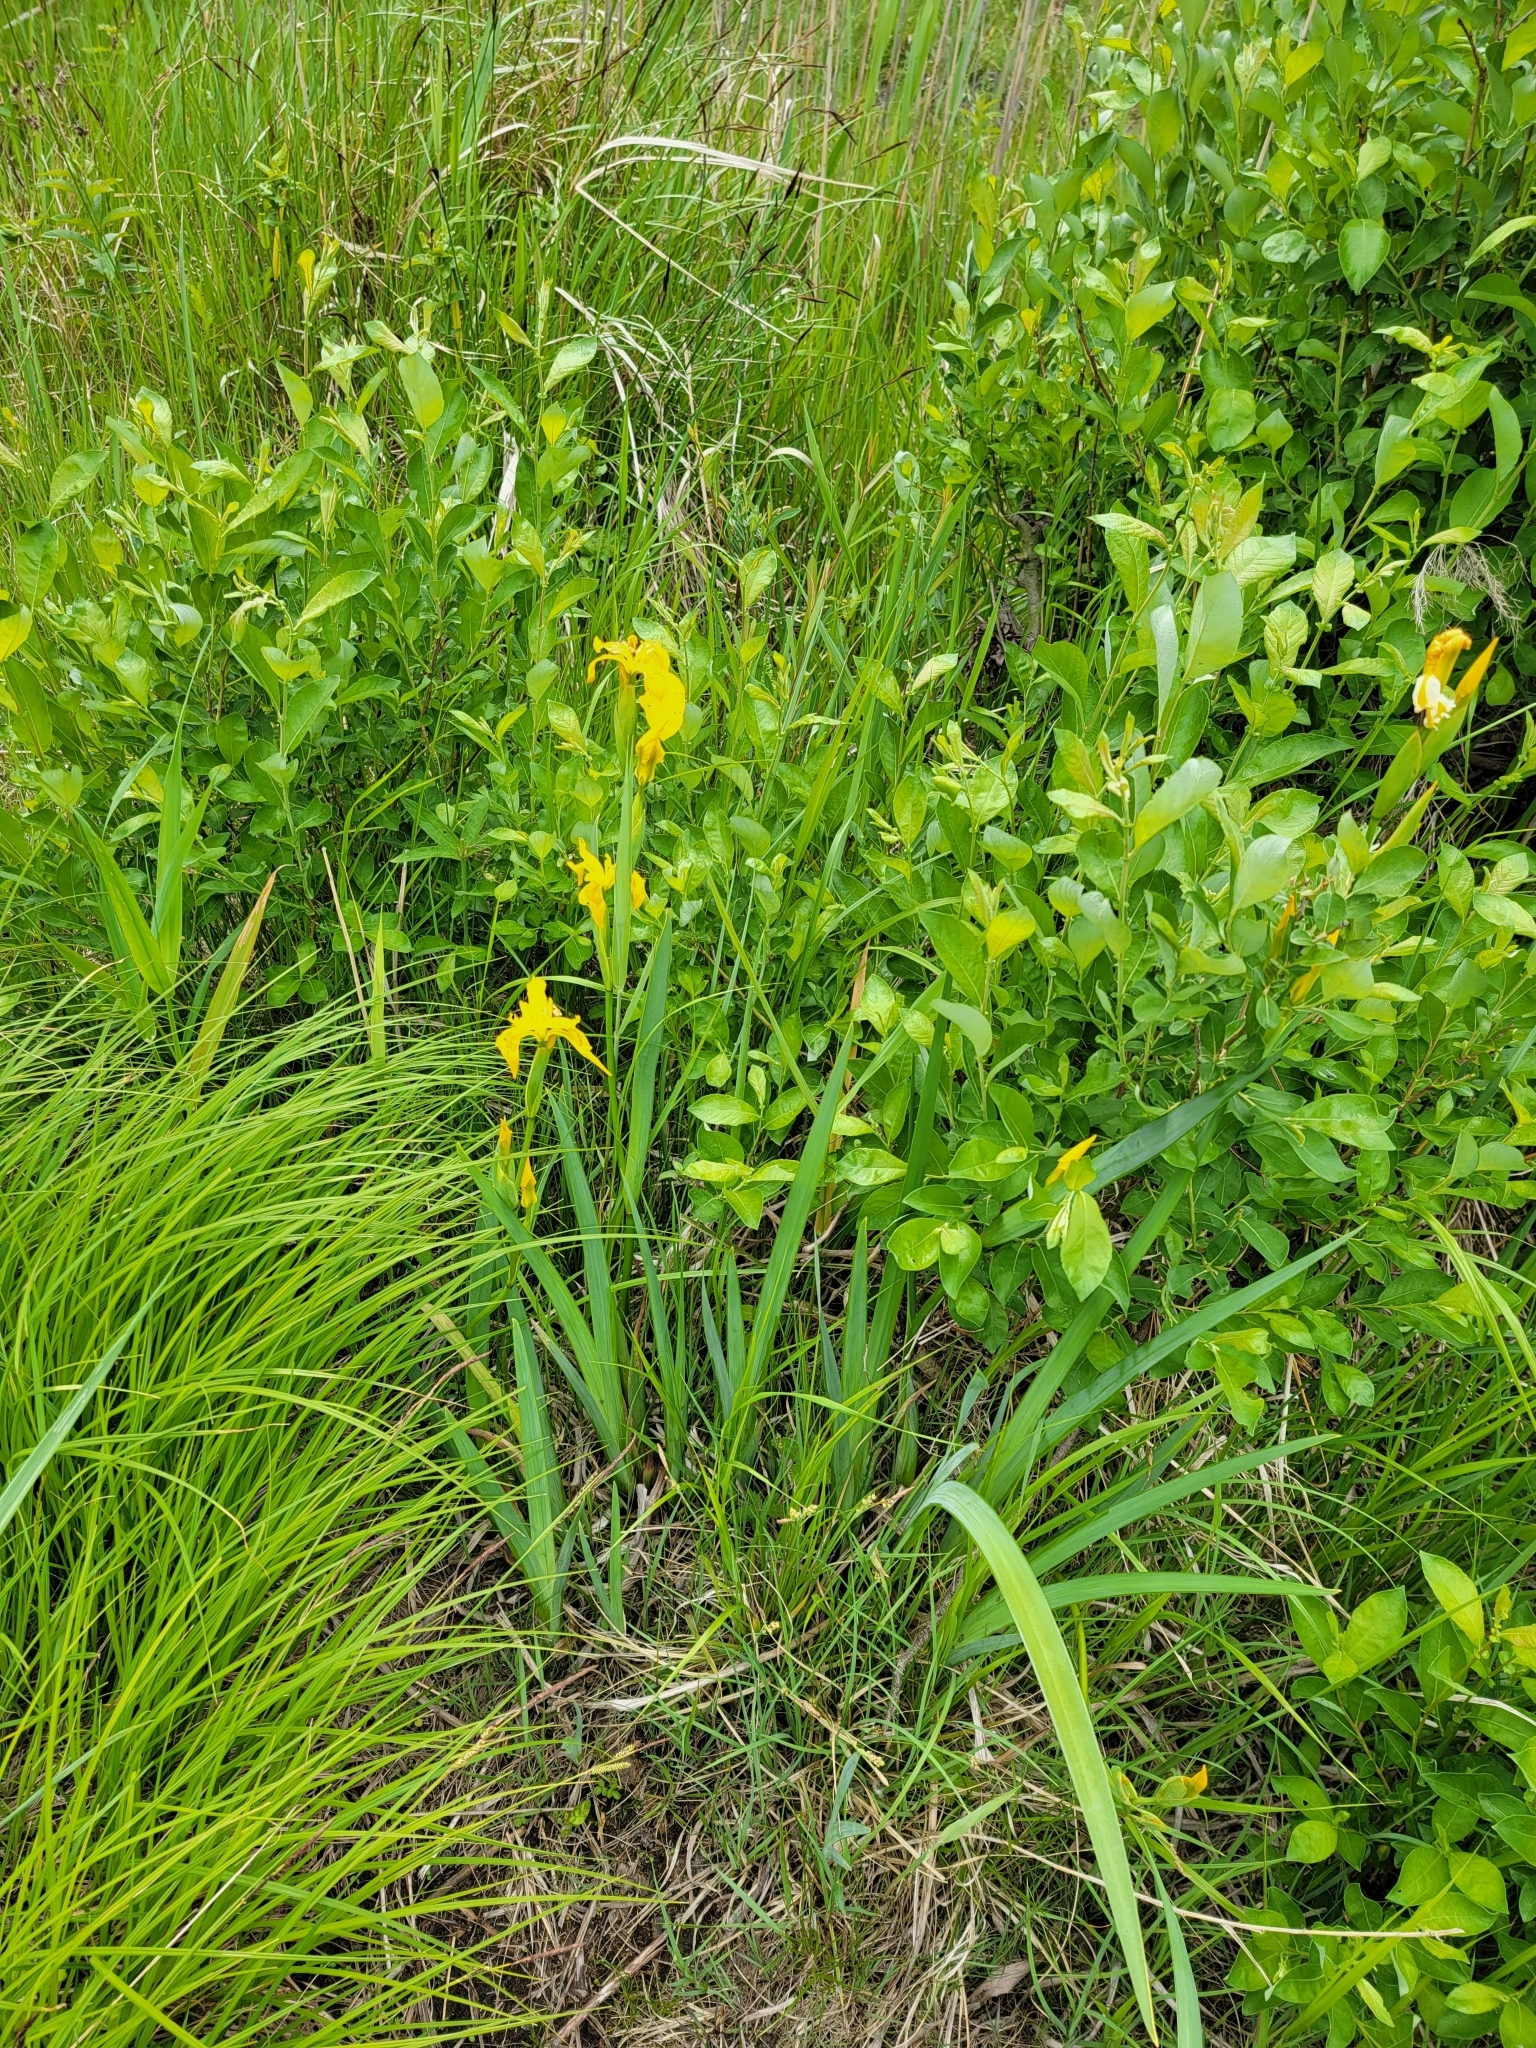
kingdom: Plantae
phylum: Tracheophyta
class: Liliopsida
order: Asparagales
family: Iridaceae
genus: Iris
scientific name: Iris pseudacorus
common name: Yellow flag
